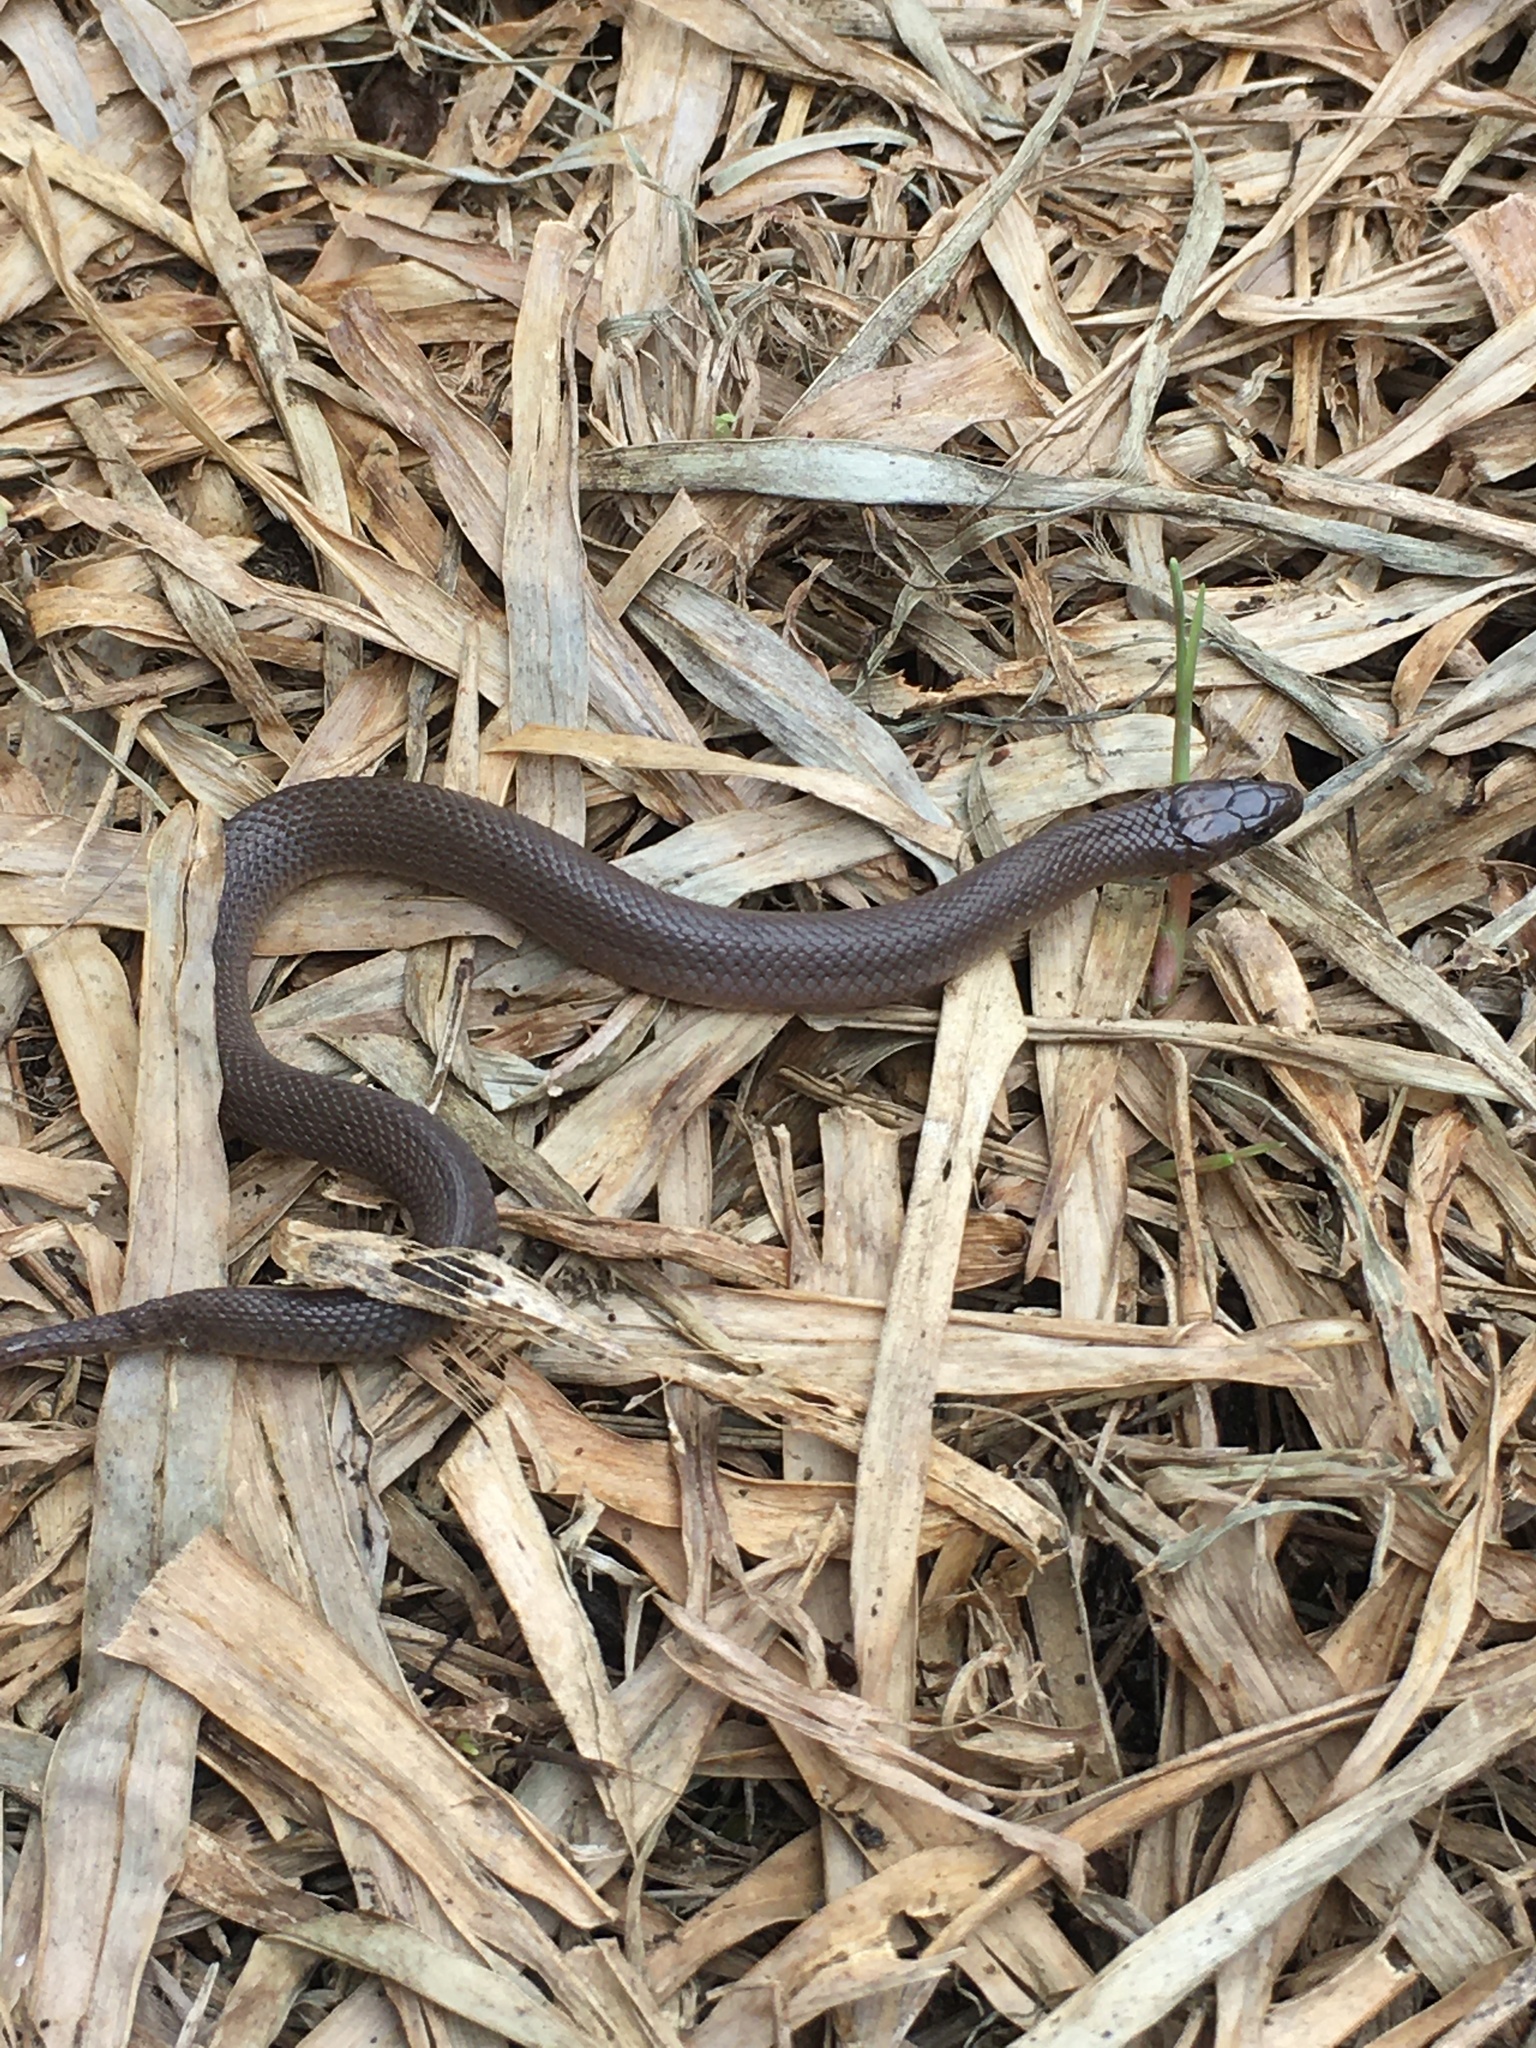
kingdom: Animalia
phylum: Chordata
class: Squamata
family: Colubridae
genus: Haldea
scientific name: Haldea striatula
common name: Rough earth snake
